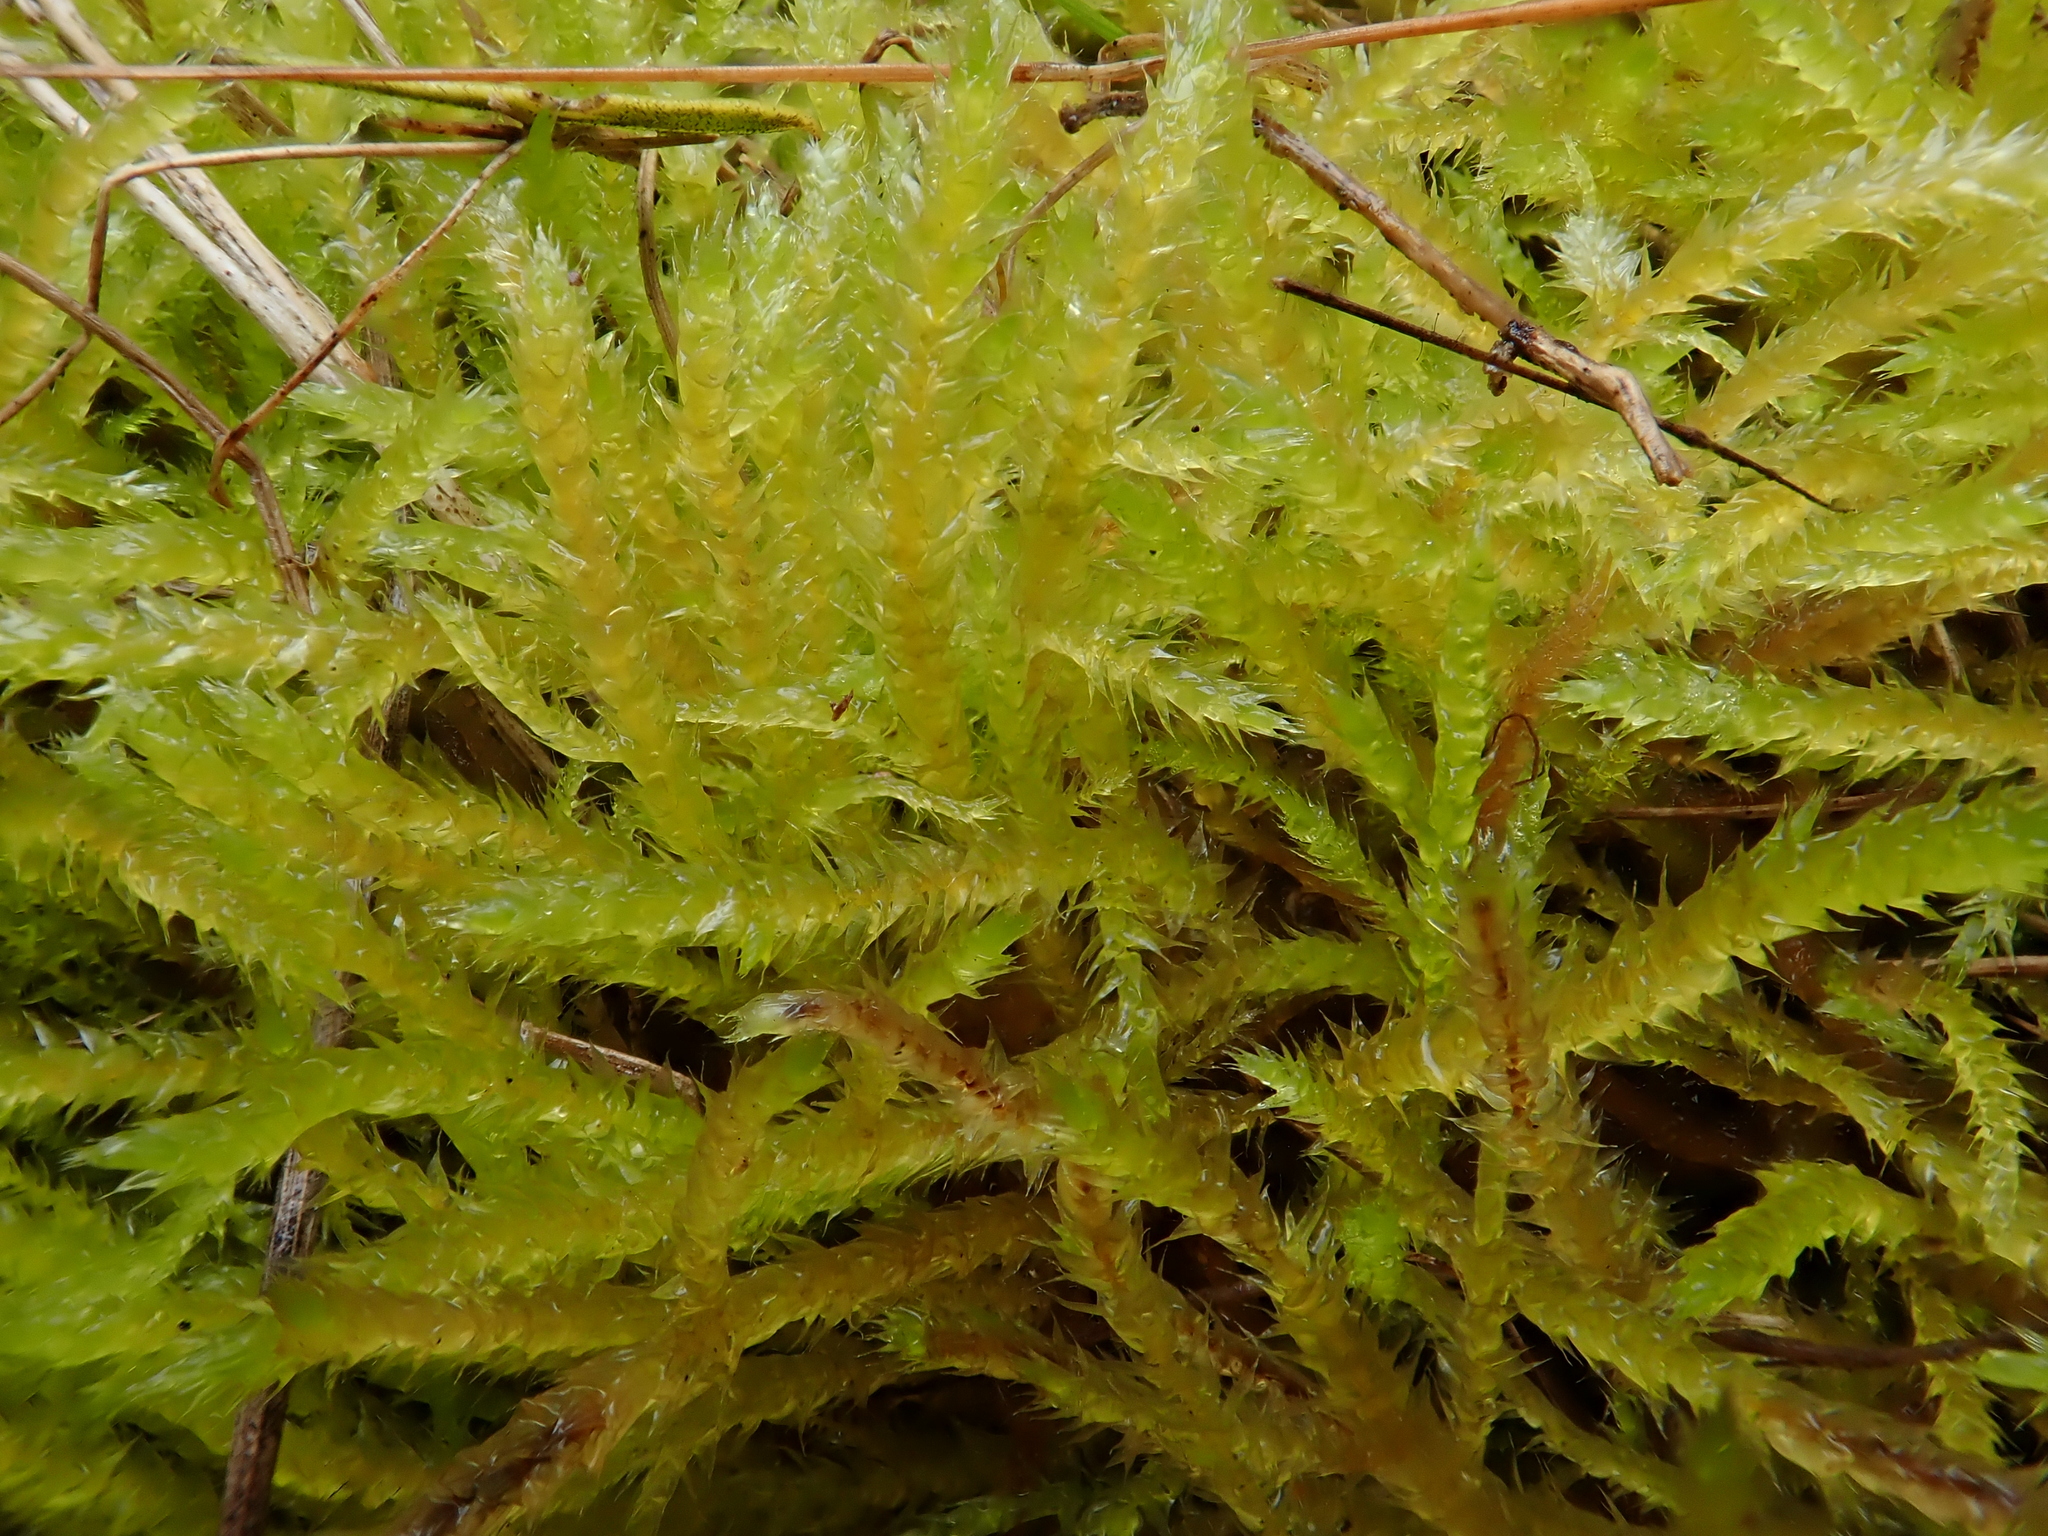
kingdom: Plantae
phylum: Bryophyta
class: Bryopsida
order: Hypnales
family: Brachytheciaceae
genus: Rhynchostegium
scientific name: Rhynchostegium megapolitanum
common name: Megapolitan feather-moss
